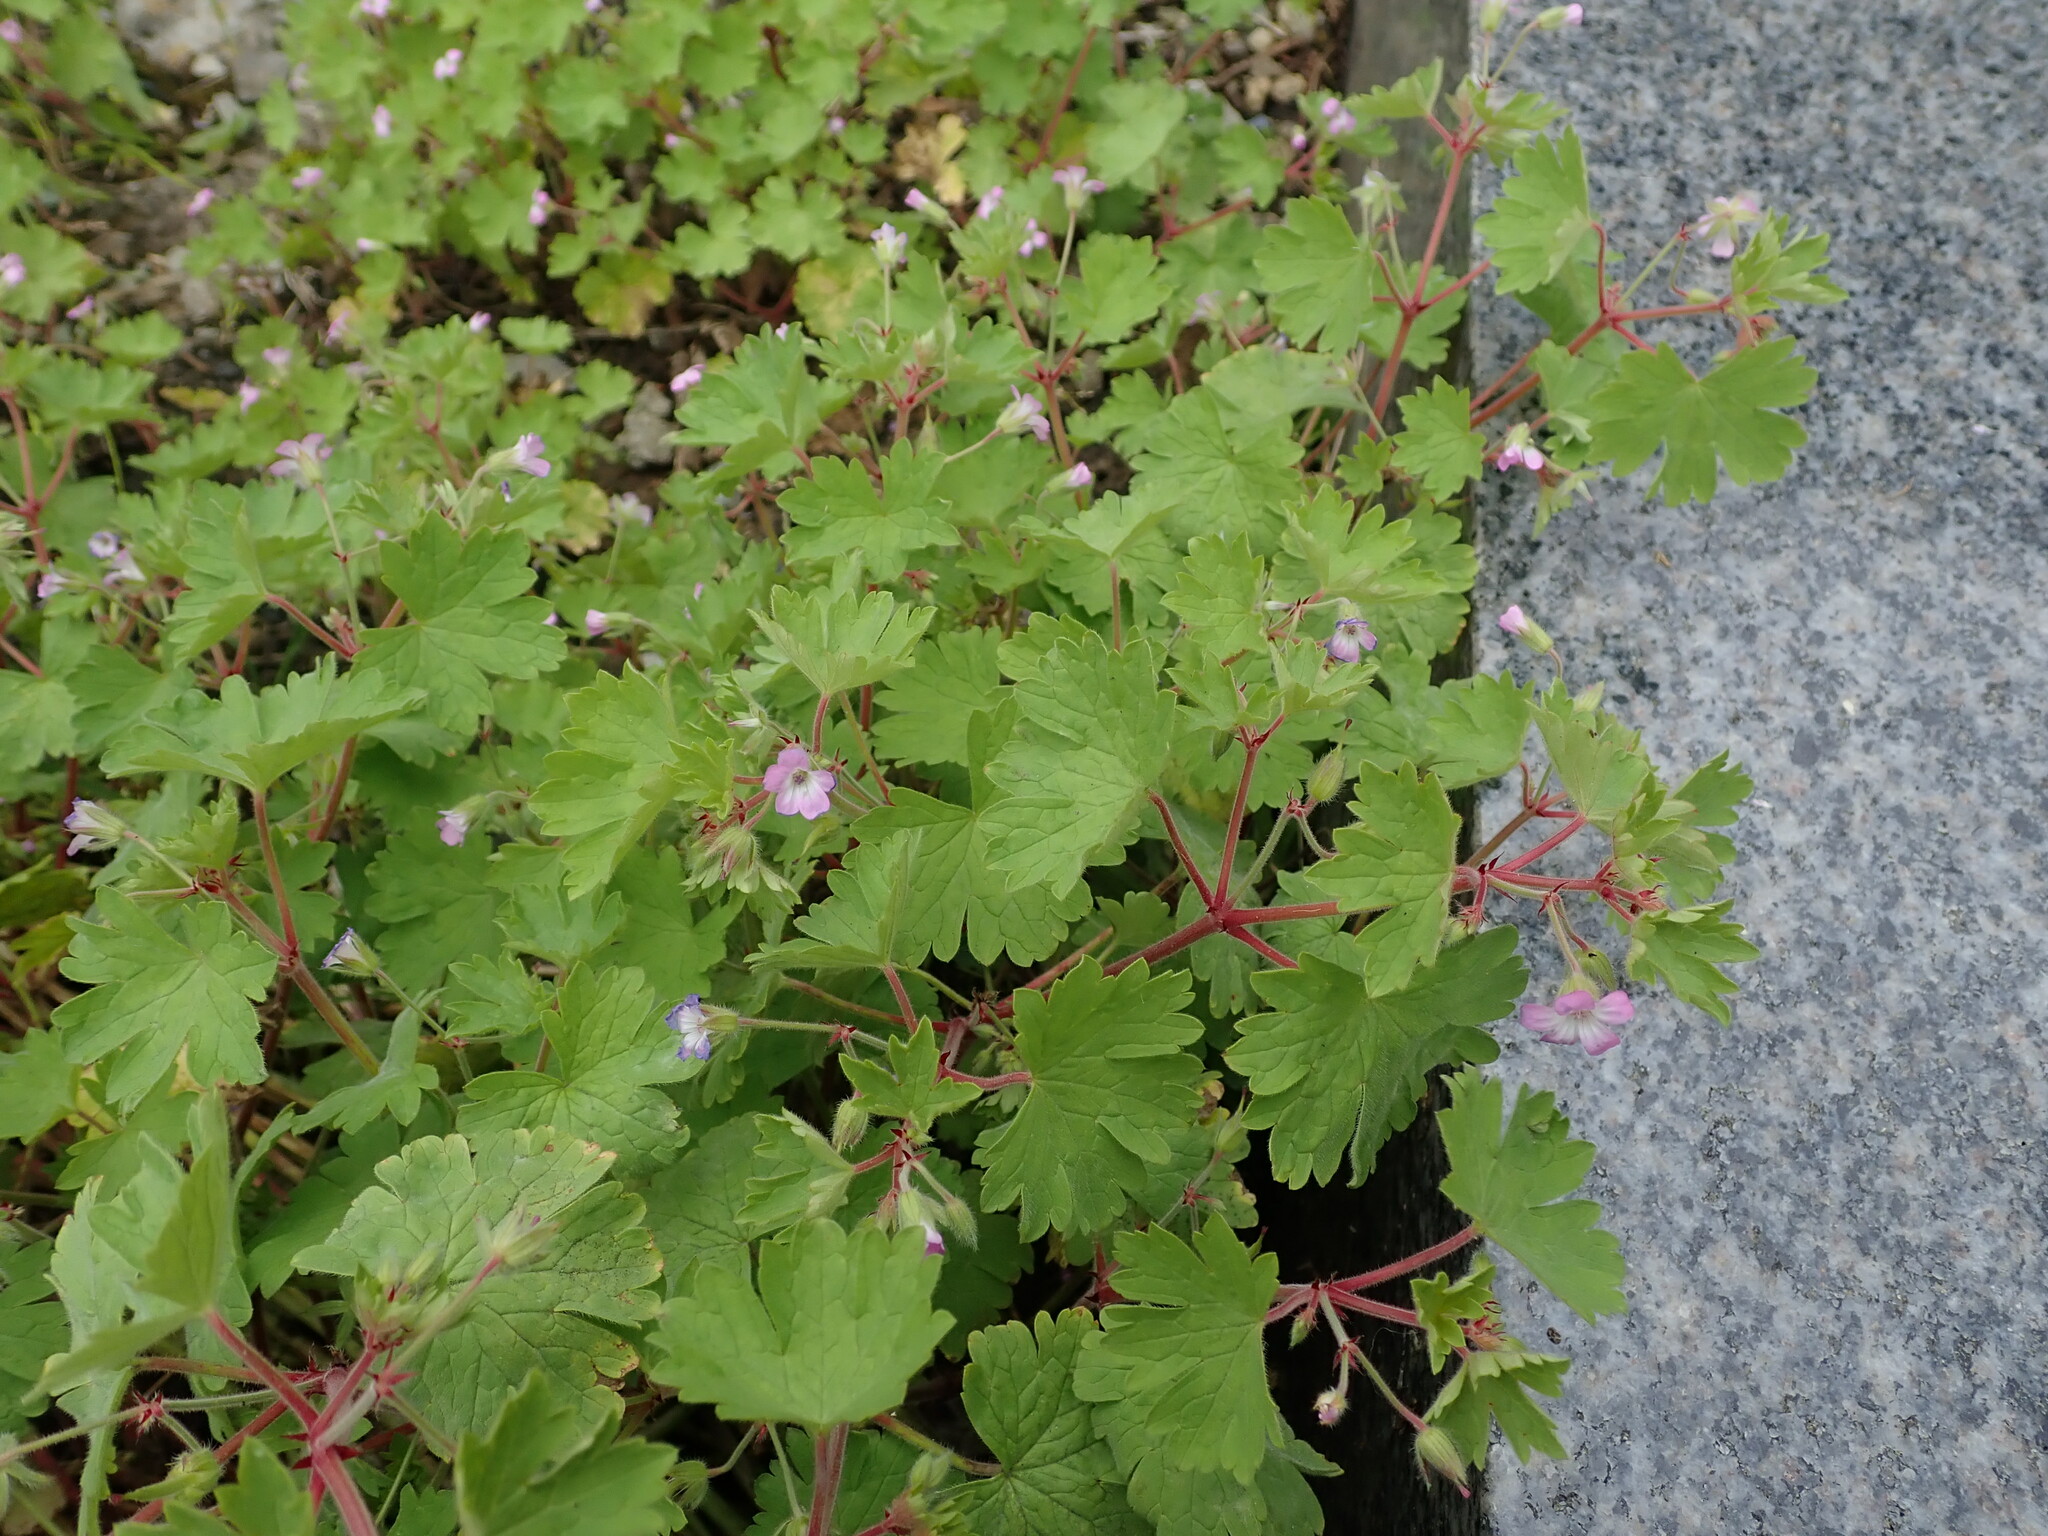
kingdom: Plantae
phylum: Tracheophyta
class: Magnoliopsida
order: Geraniales
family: Geraniaceae
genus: Geranium
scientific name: Geranium rotundifolium
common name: Round-leaved crane's-bill
